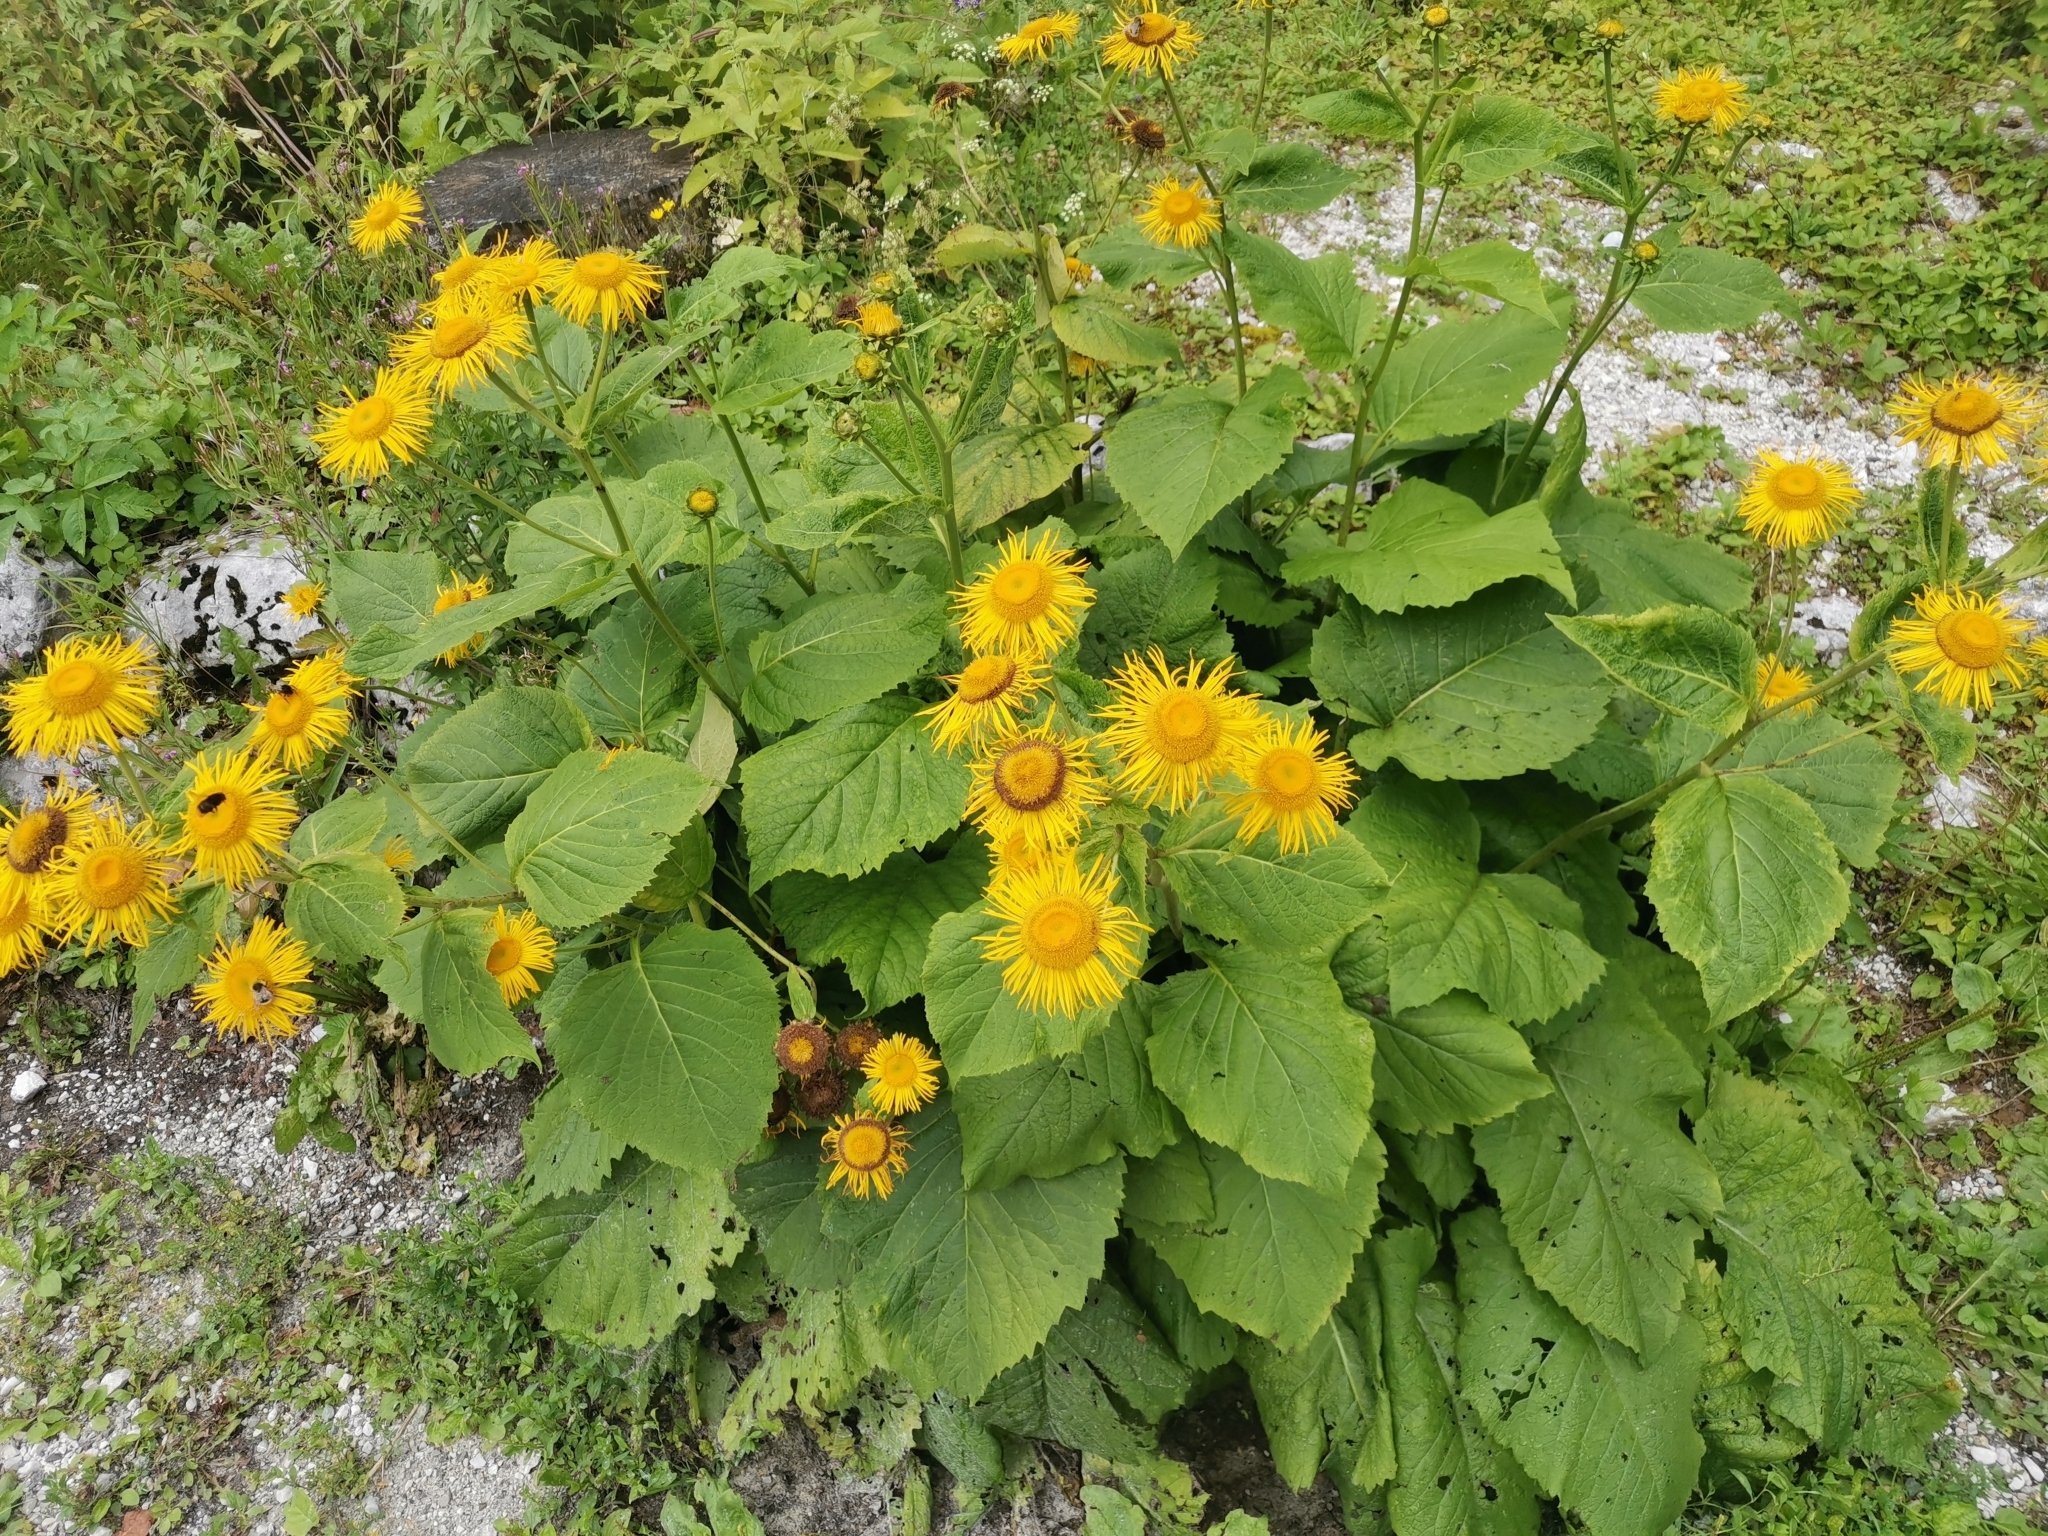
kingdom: Plantae
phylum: Tracheophyta
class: Magnoliopsida
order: Asterales
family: Asteraceae
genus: Telekia
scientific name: Telekia speciosa
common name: Yellow oxeye
